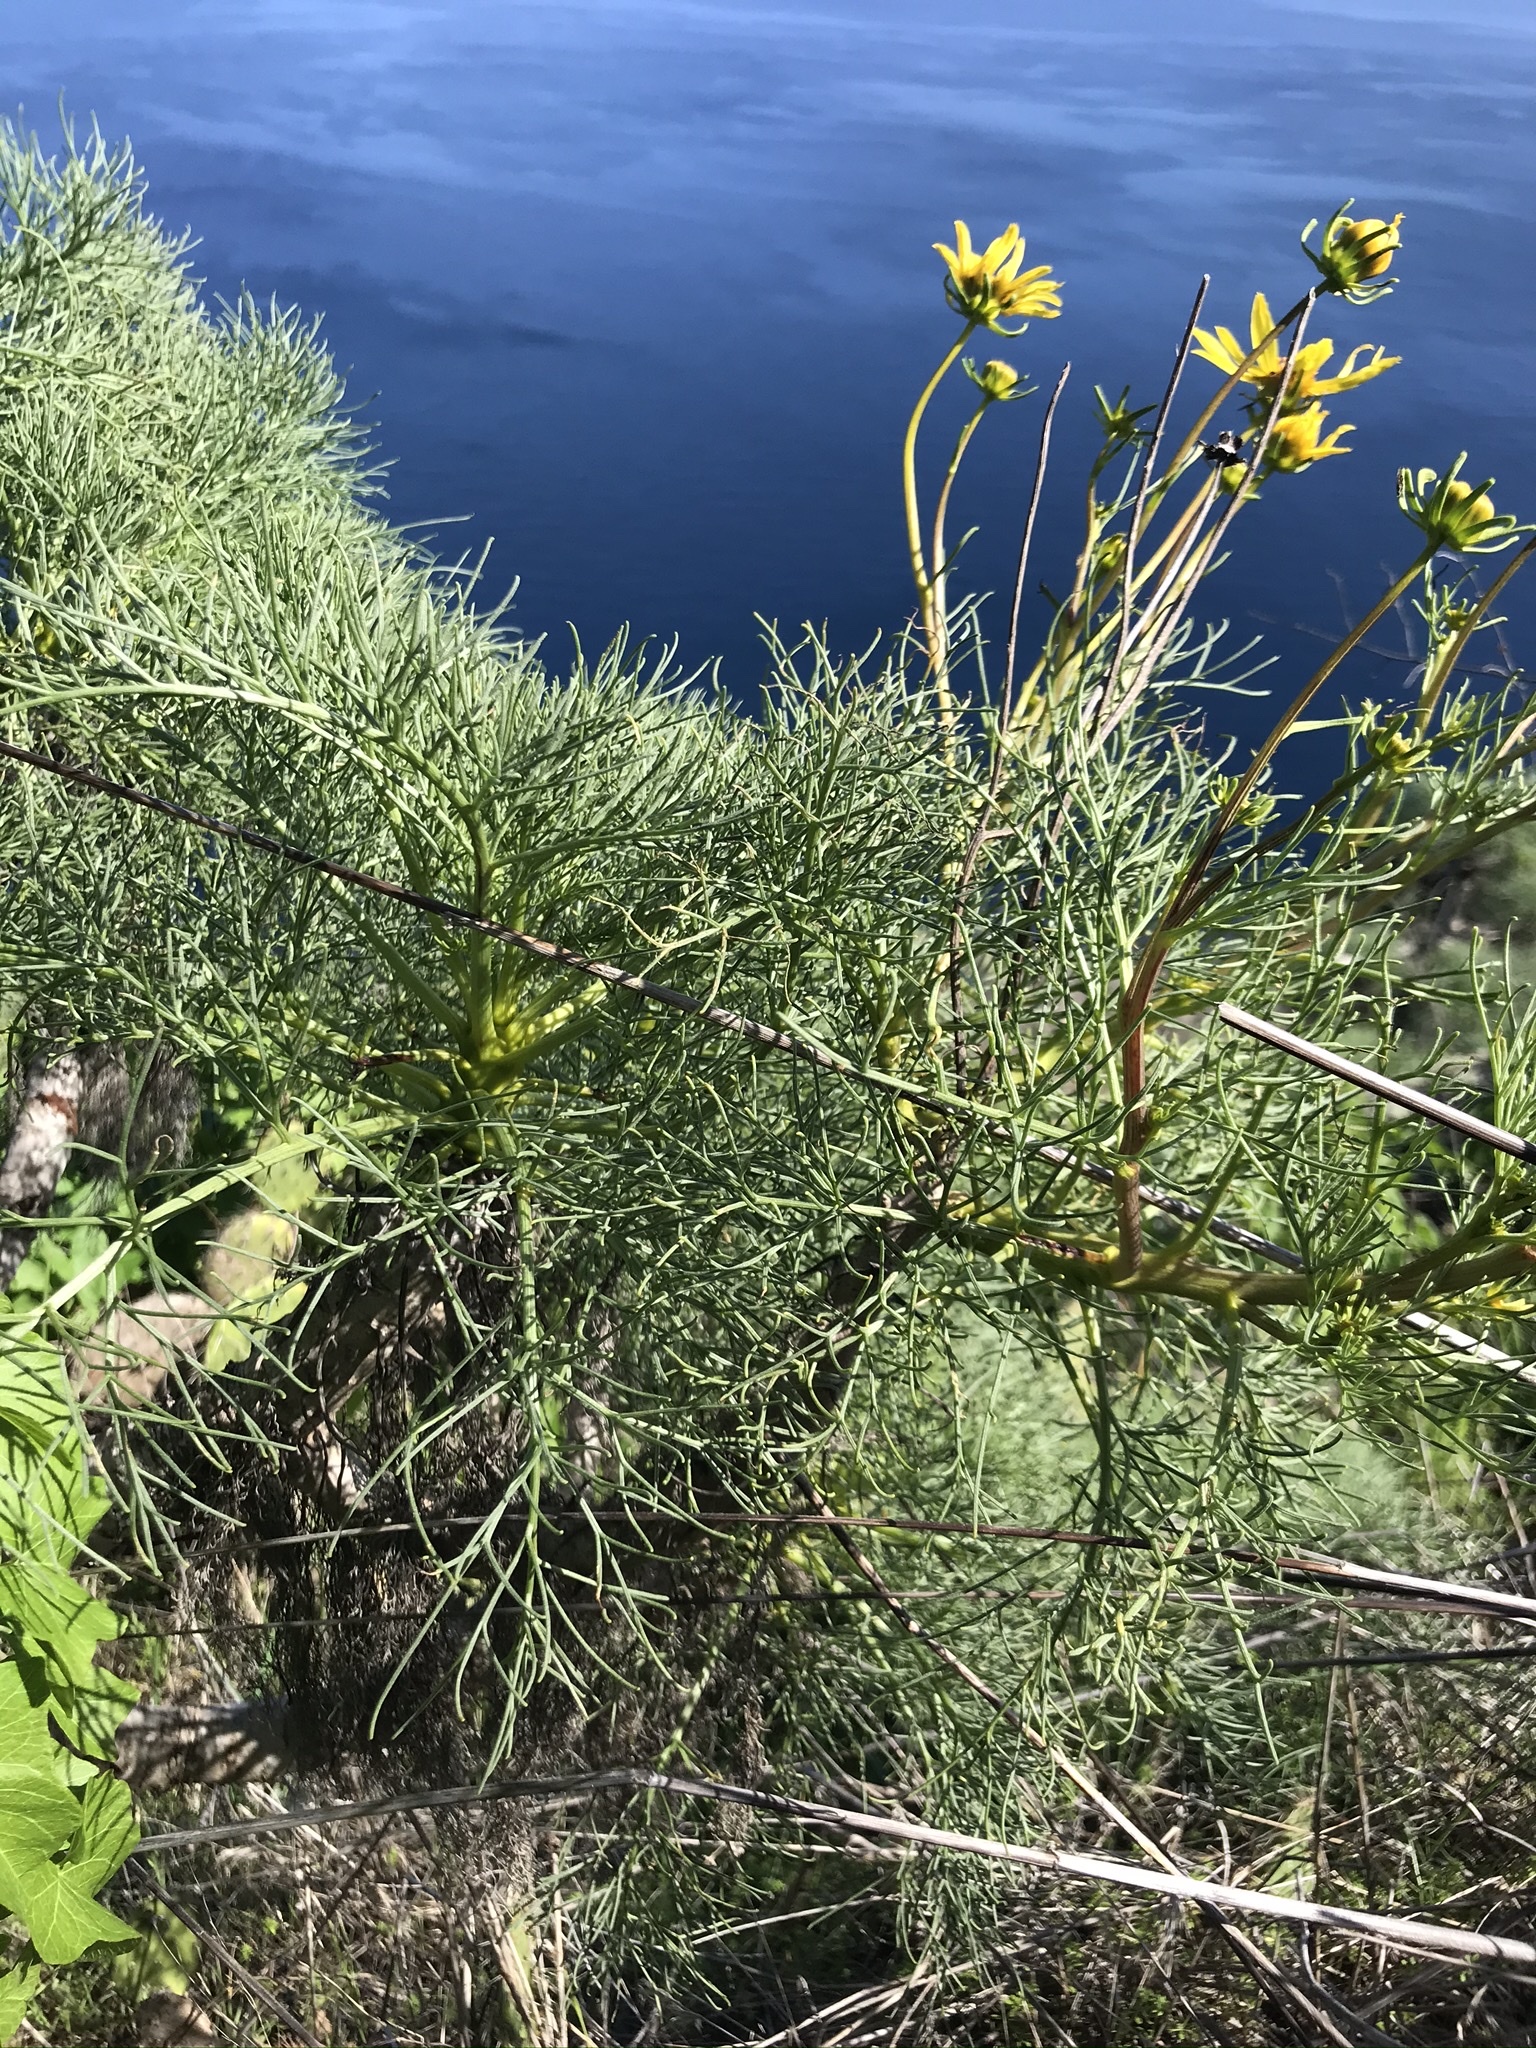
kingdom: Plantae
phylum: Tracheophyta
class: Magnoliopsida
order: Asterales
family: Asteraceae
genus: Coreopsis
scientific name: Coreopsis gigantea
